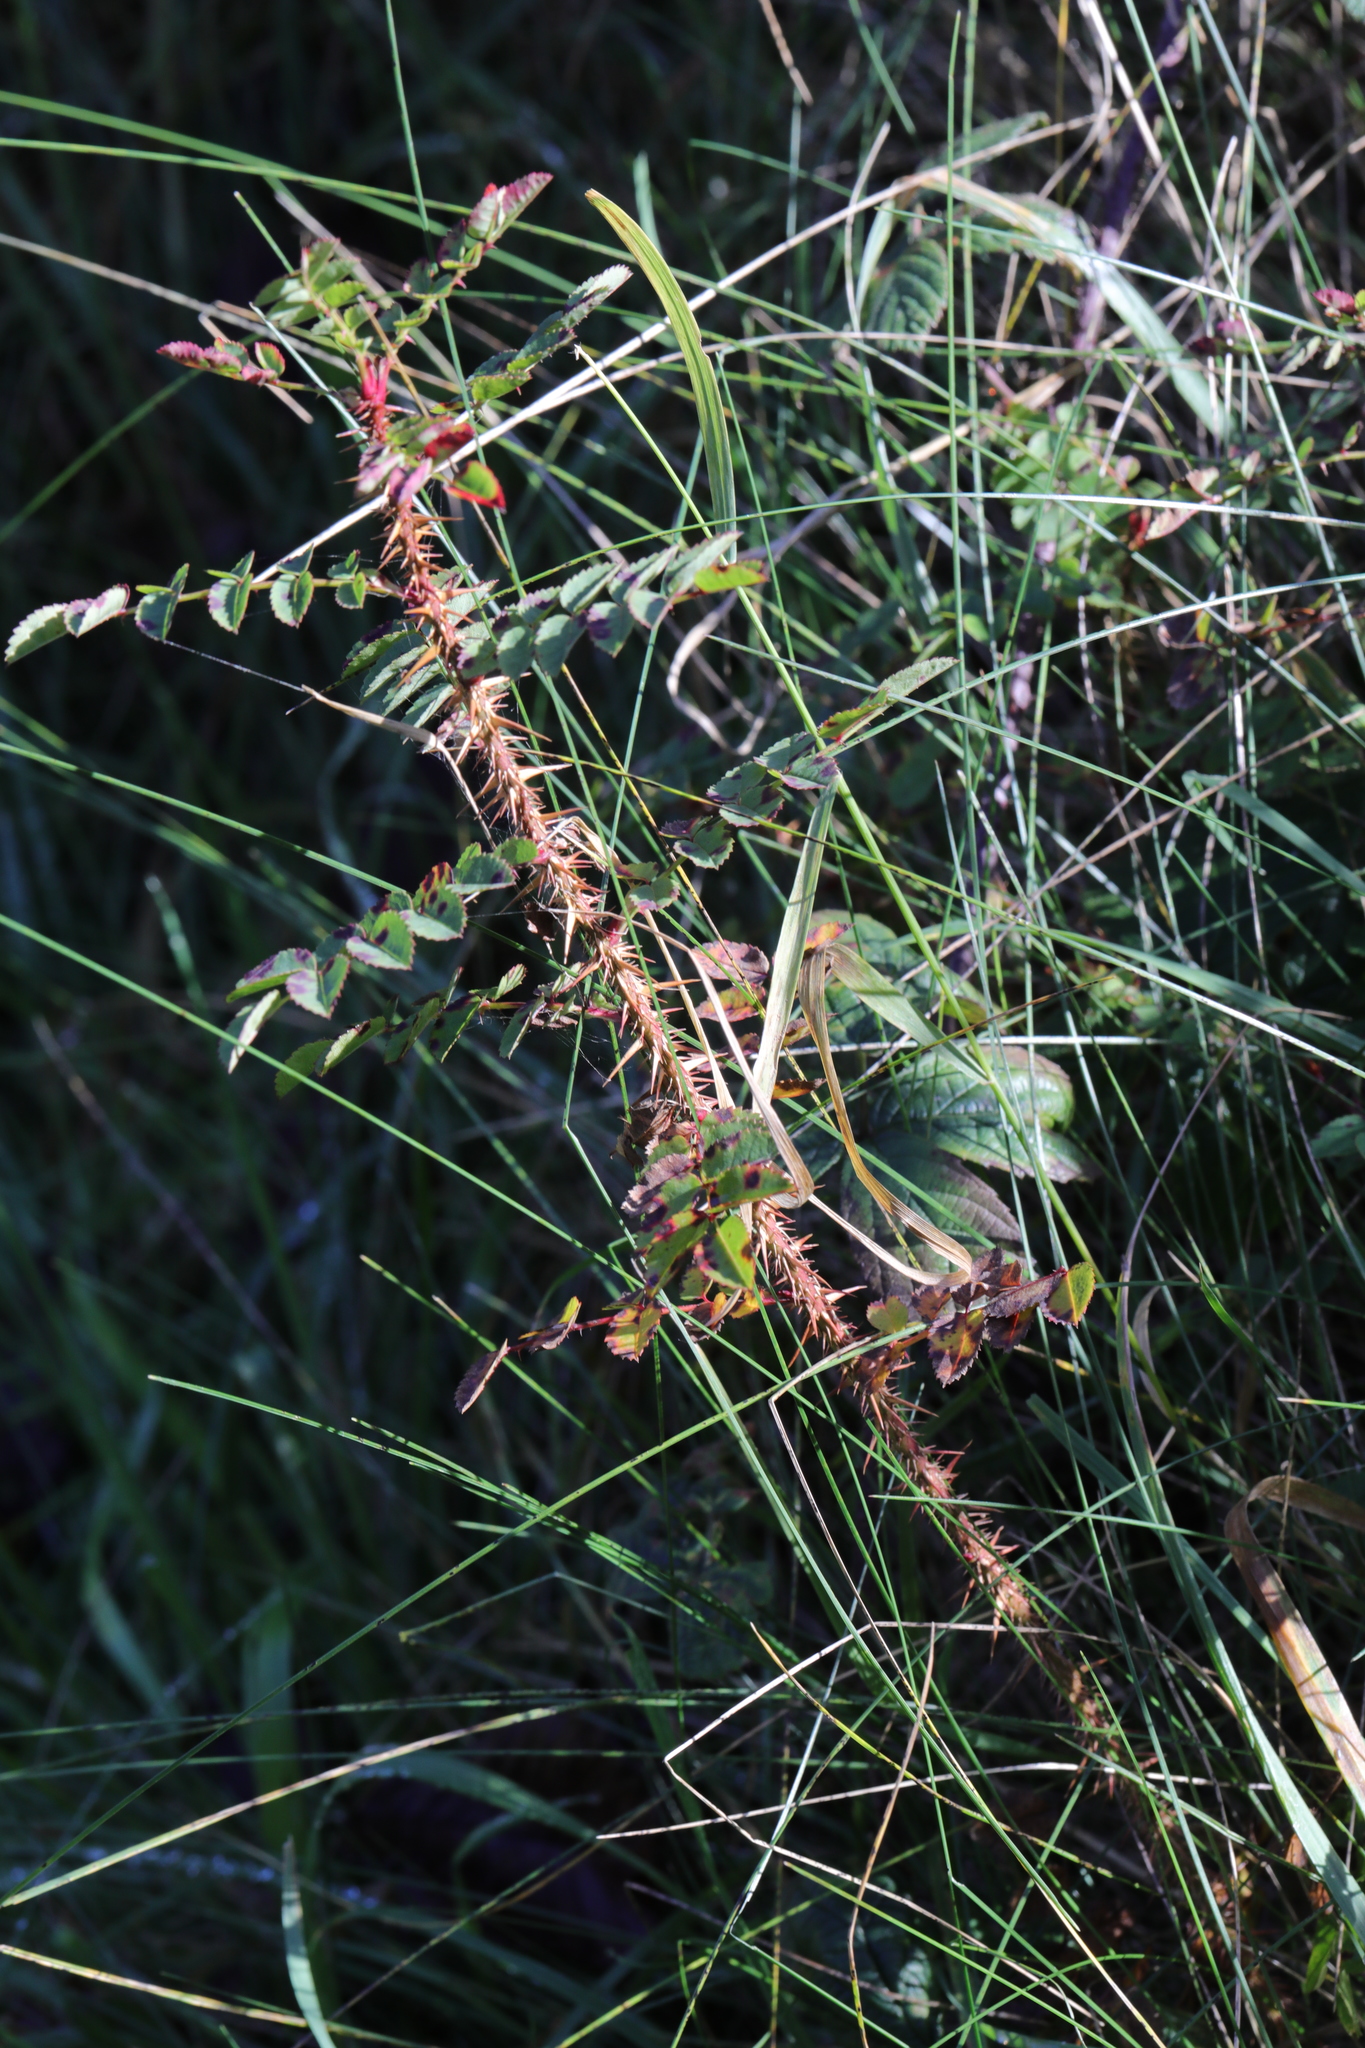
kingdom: Plantae
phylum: Tracheophyta
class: Magnoliopsida
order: Rosales
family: Rosaceae
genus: Rosa
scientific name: Rosa spinosissima
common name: Burnet rose
